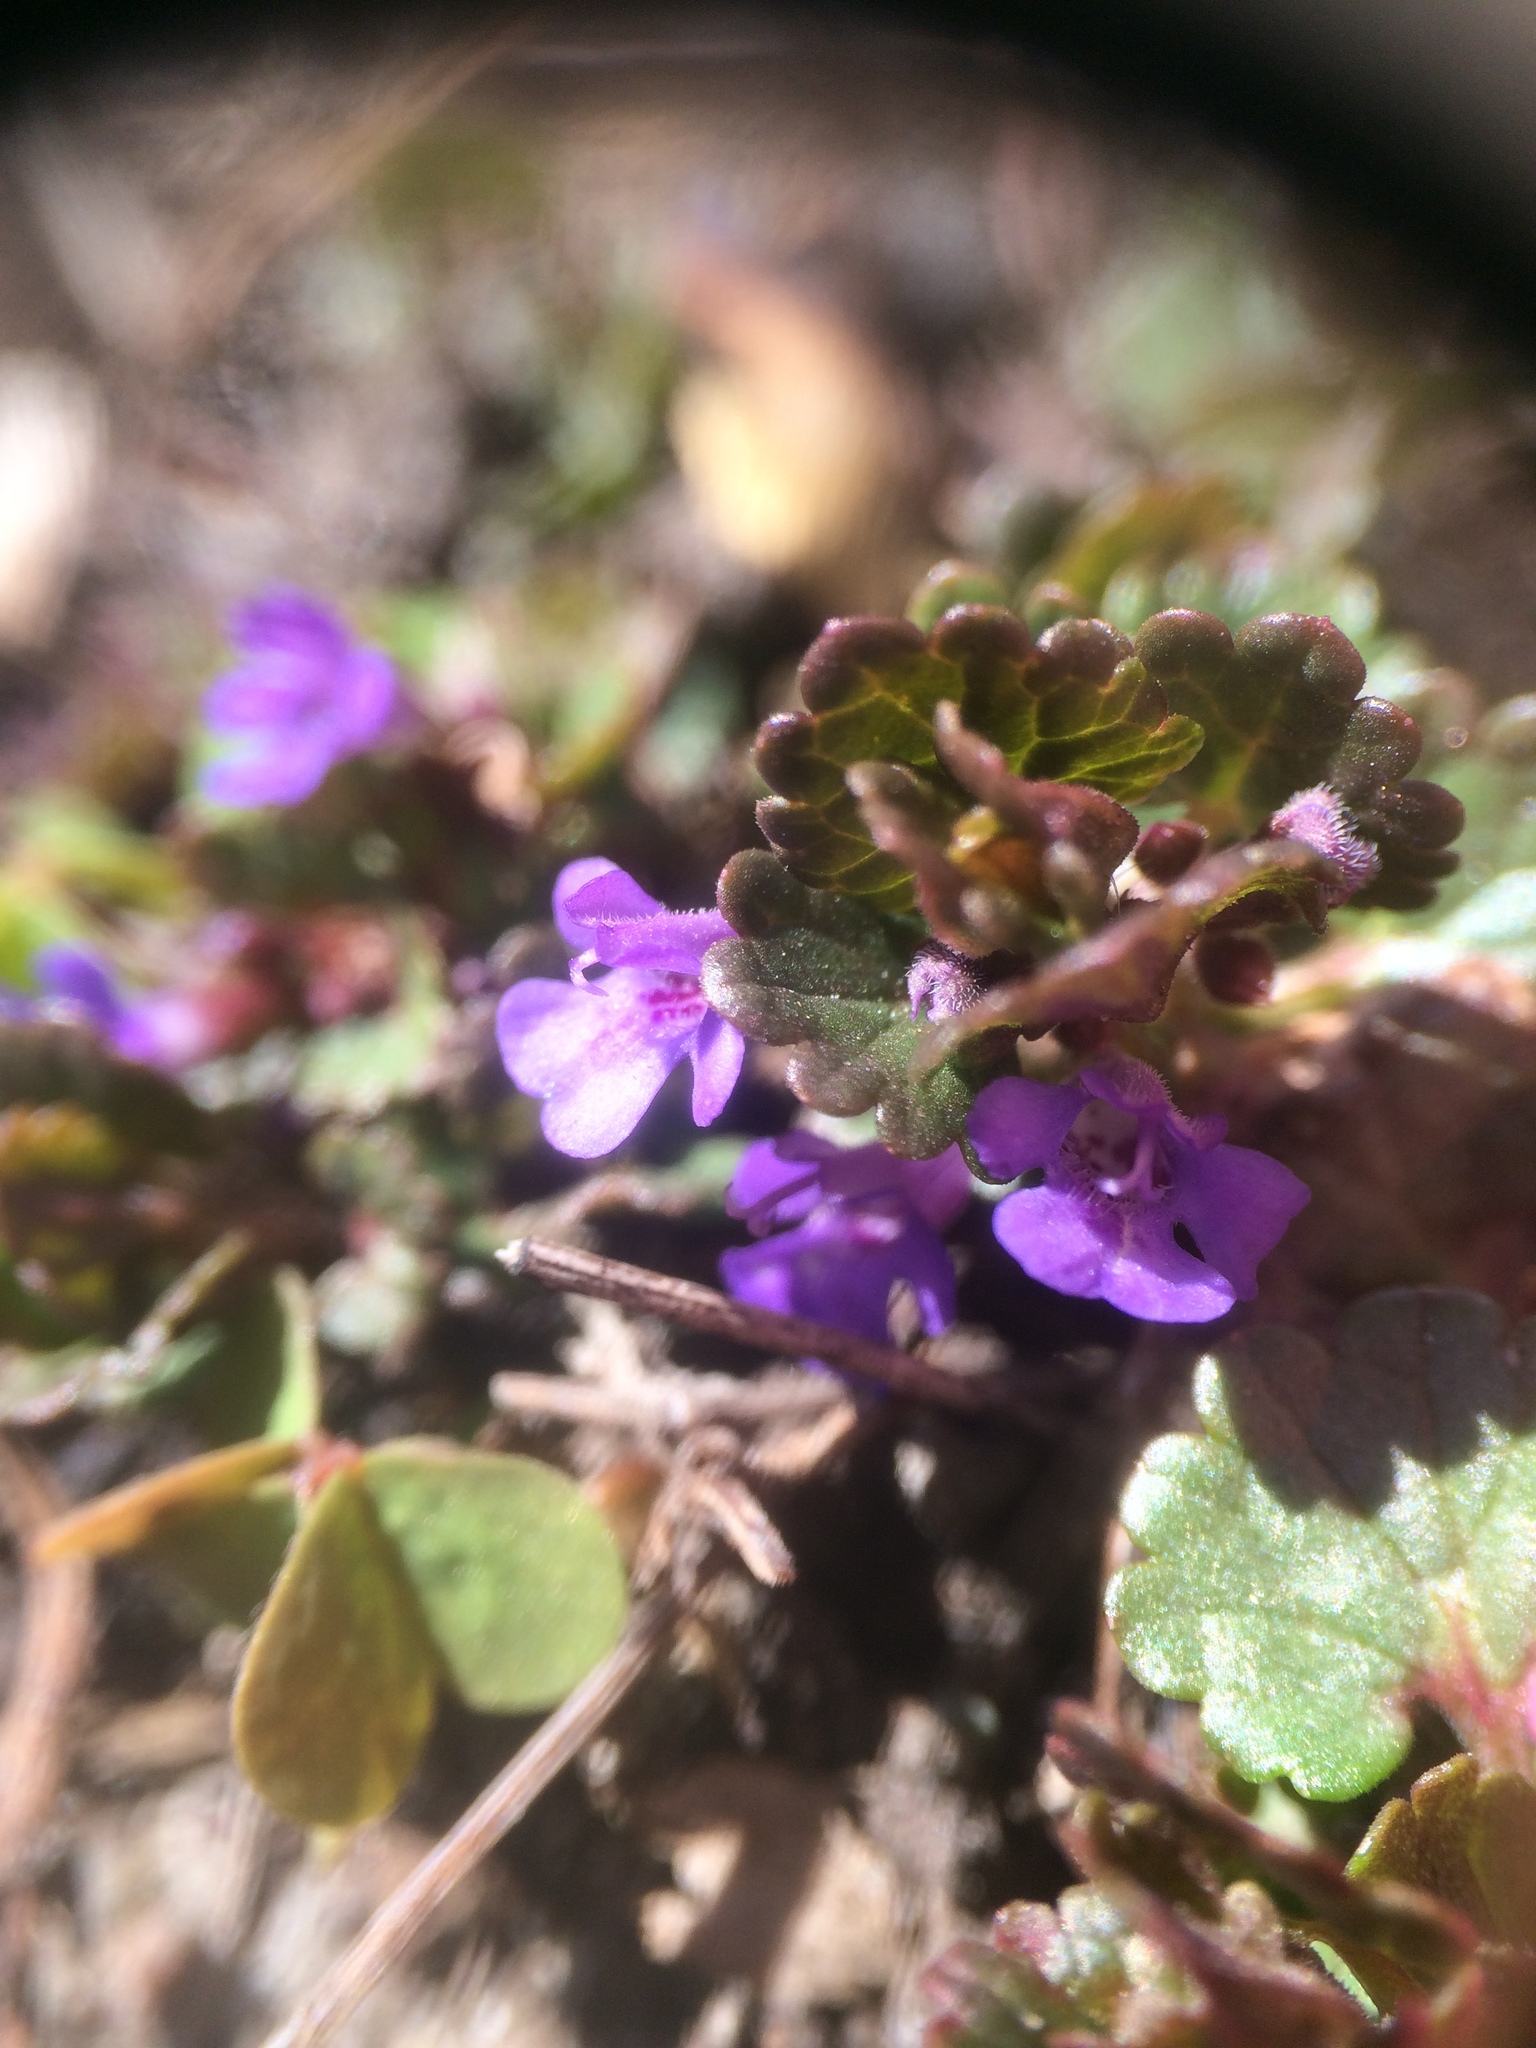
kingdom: Plantae
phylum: Tracheophyta
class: Magnoliopsida
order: Lamiales
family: Lamiaceae
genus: Glechoma
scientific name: Glechoma hederacea
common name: Ground ivy
